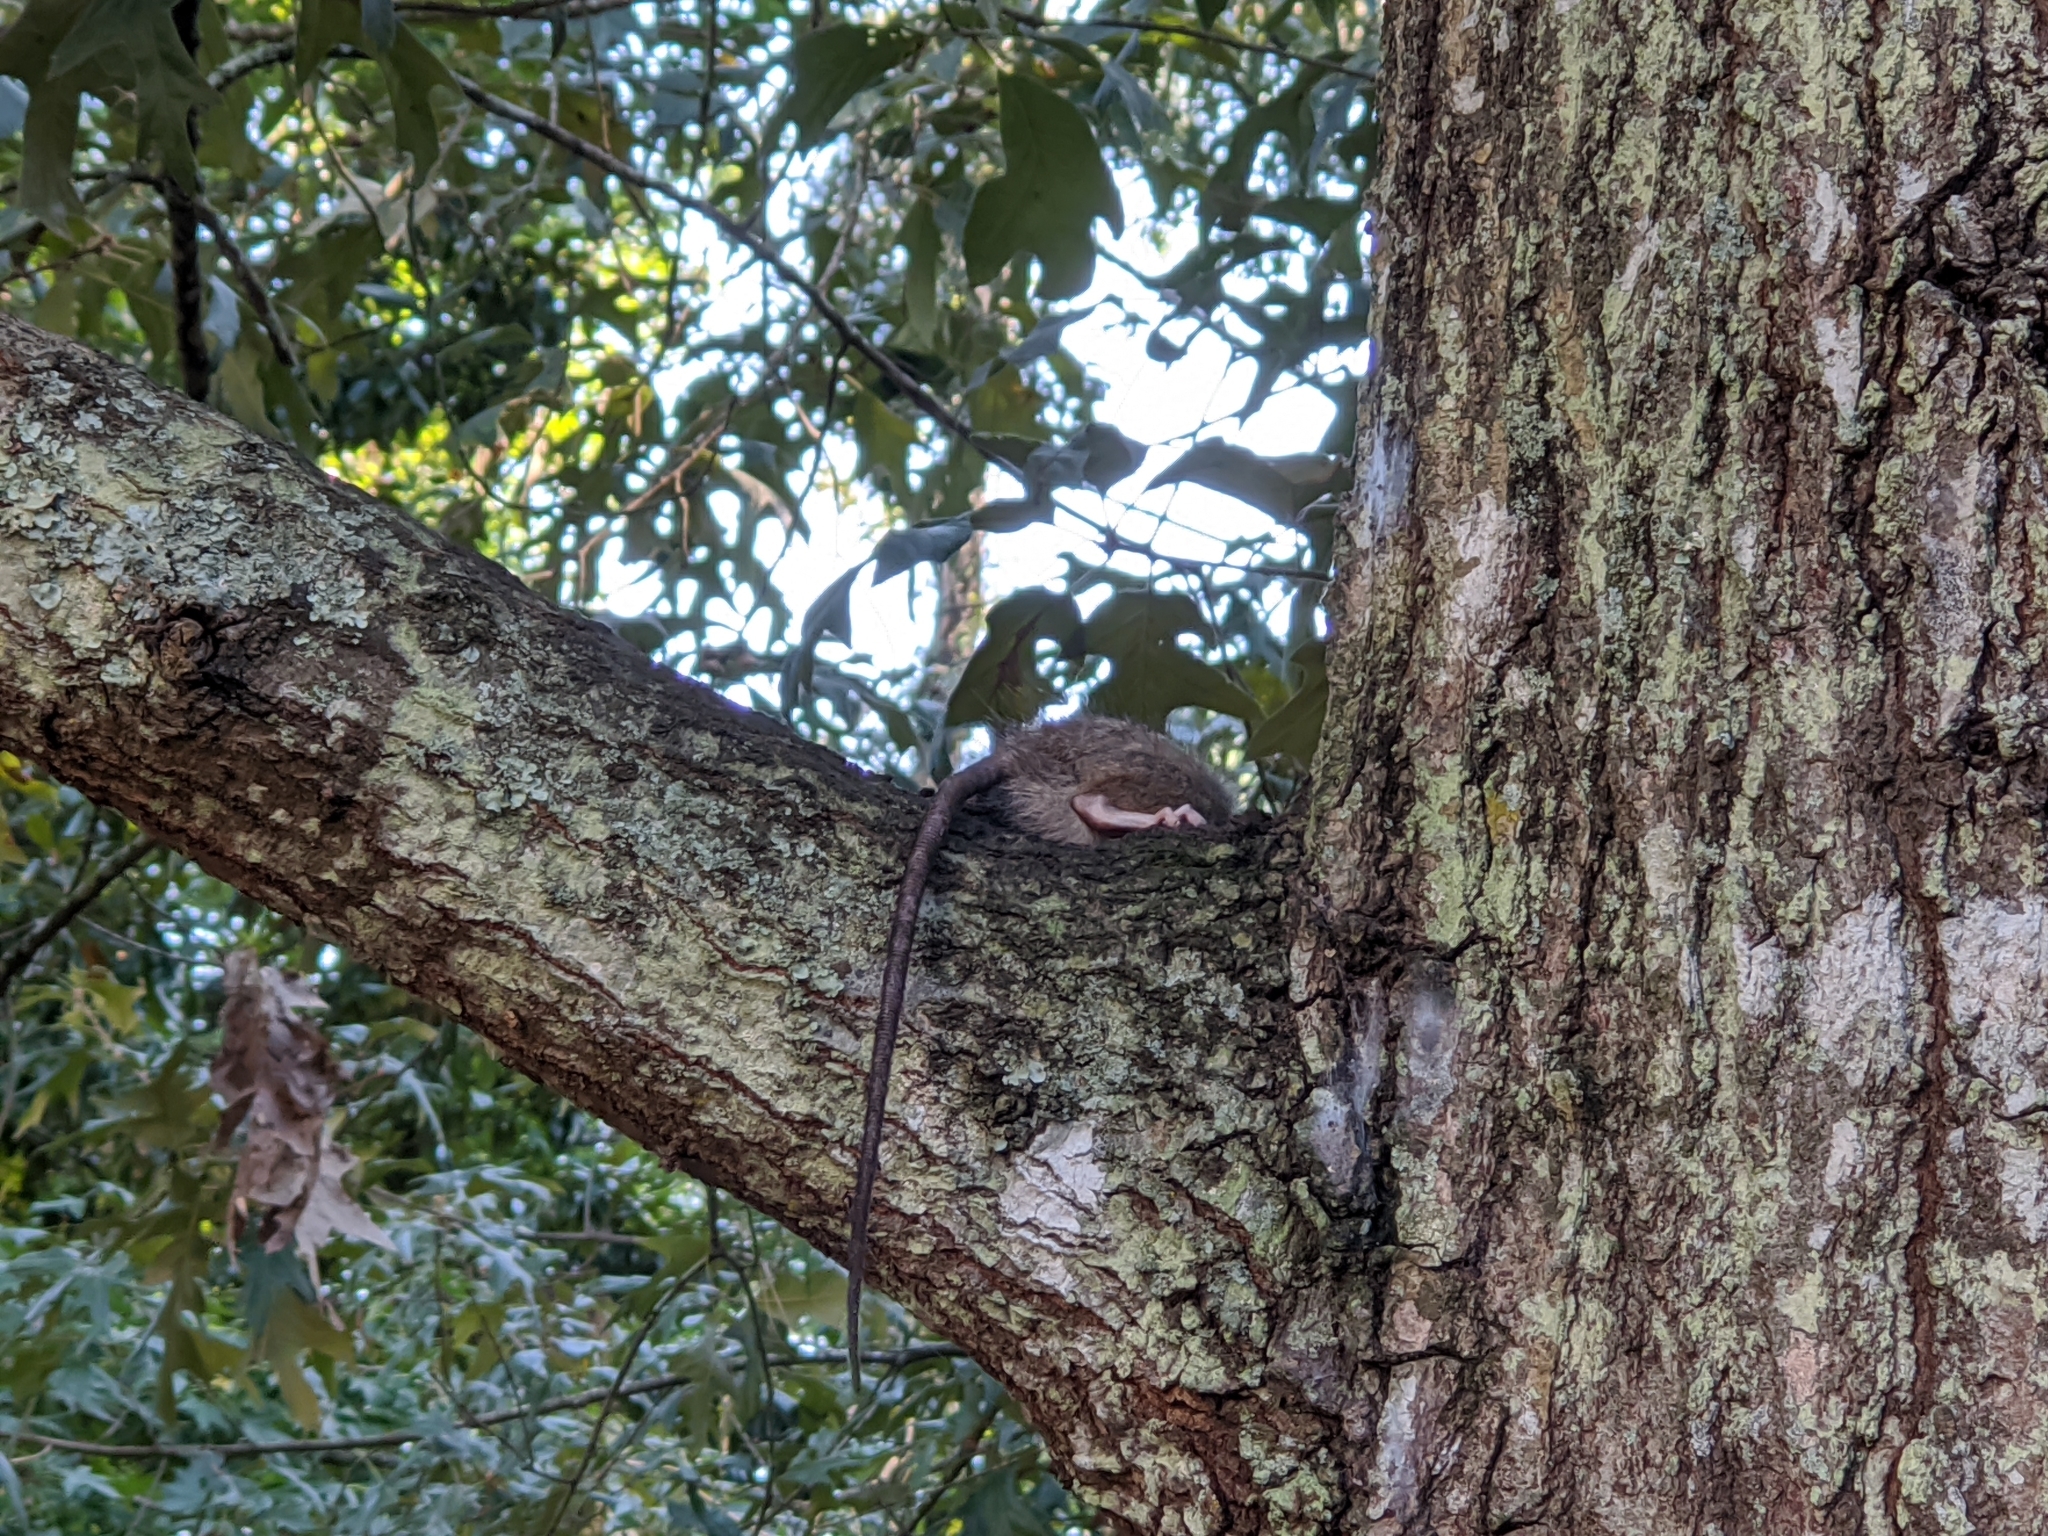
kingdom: Animalia
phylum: Chordata
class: Mammalia
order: Rodentia
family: Muridae
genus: Rattus
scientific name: Rattus rattus
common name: Black rat
